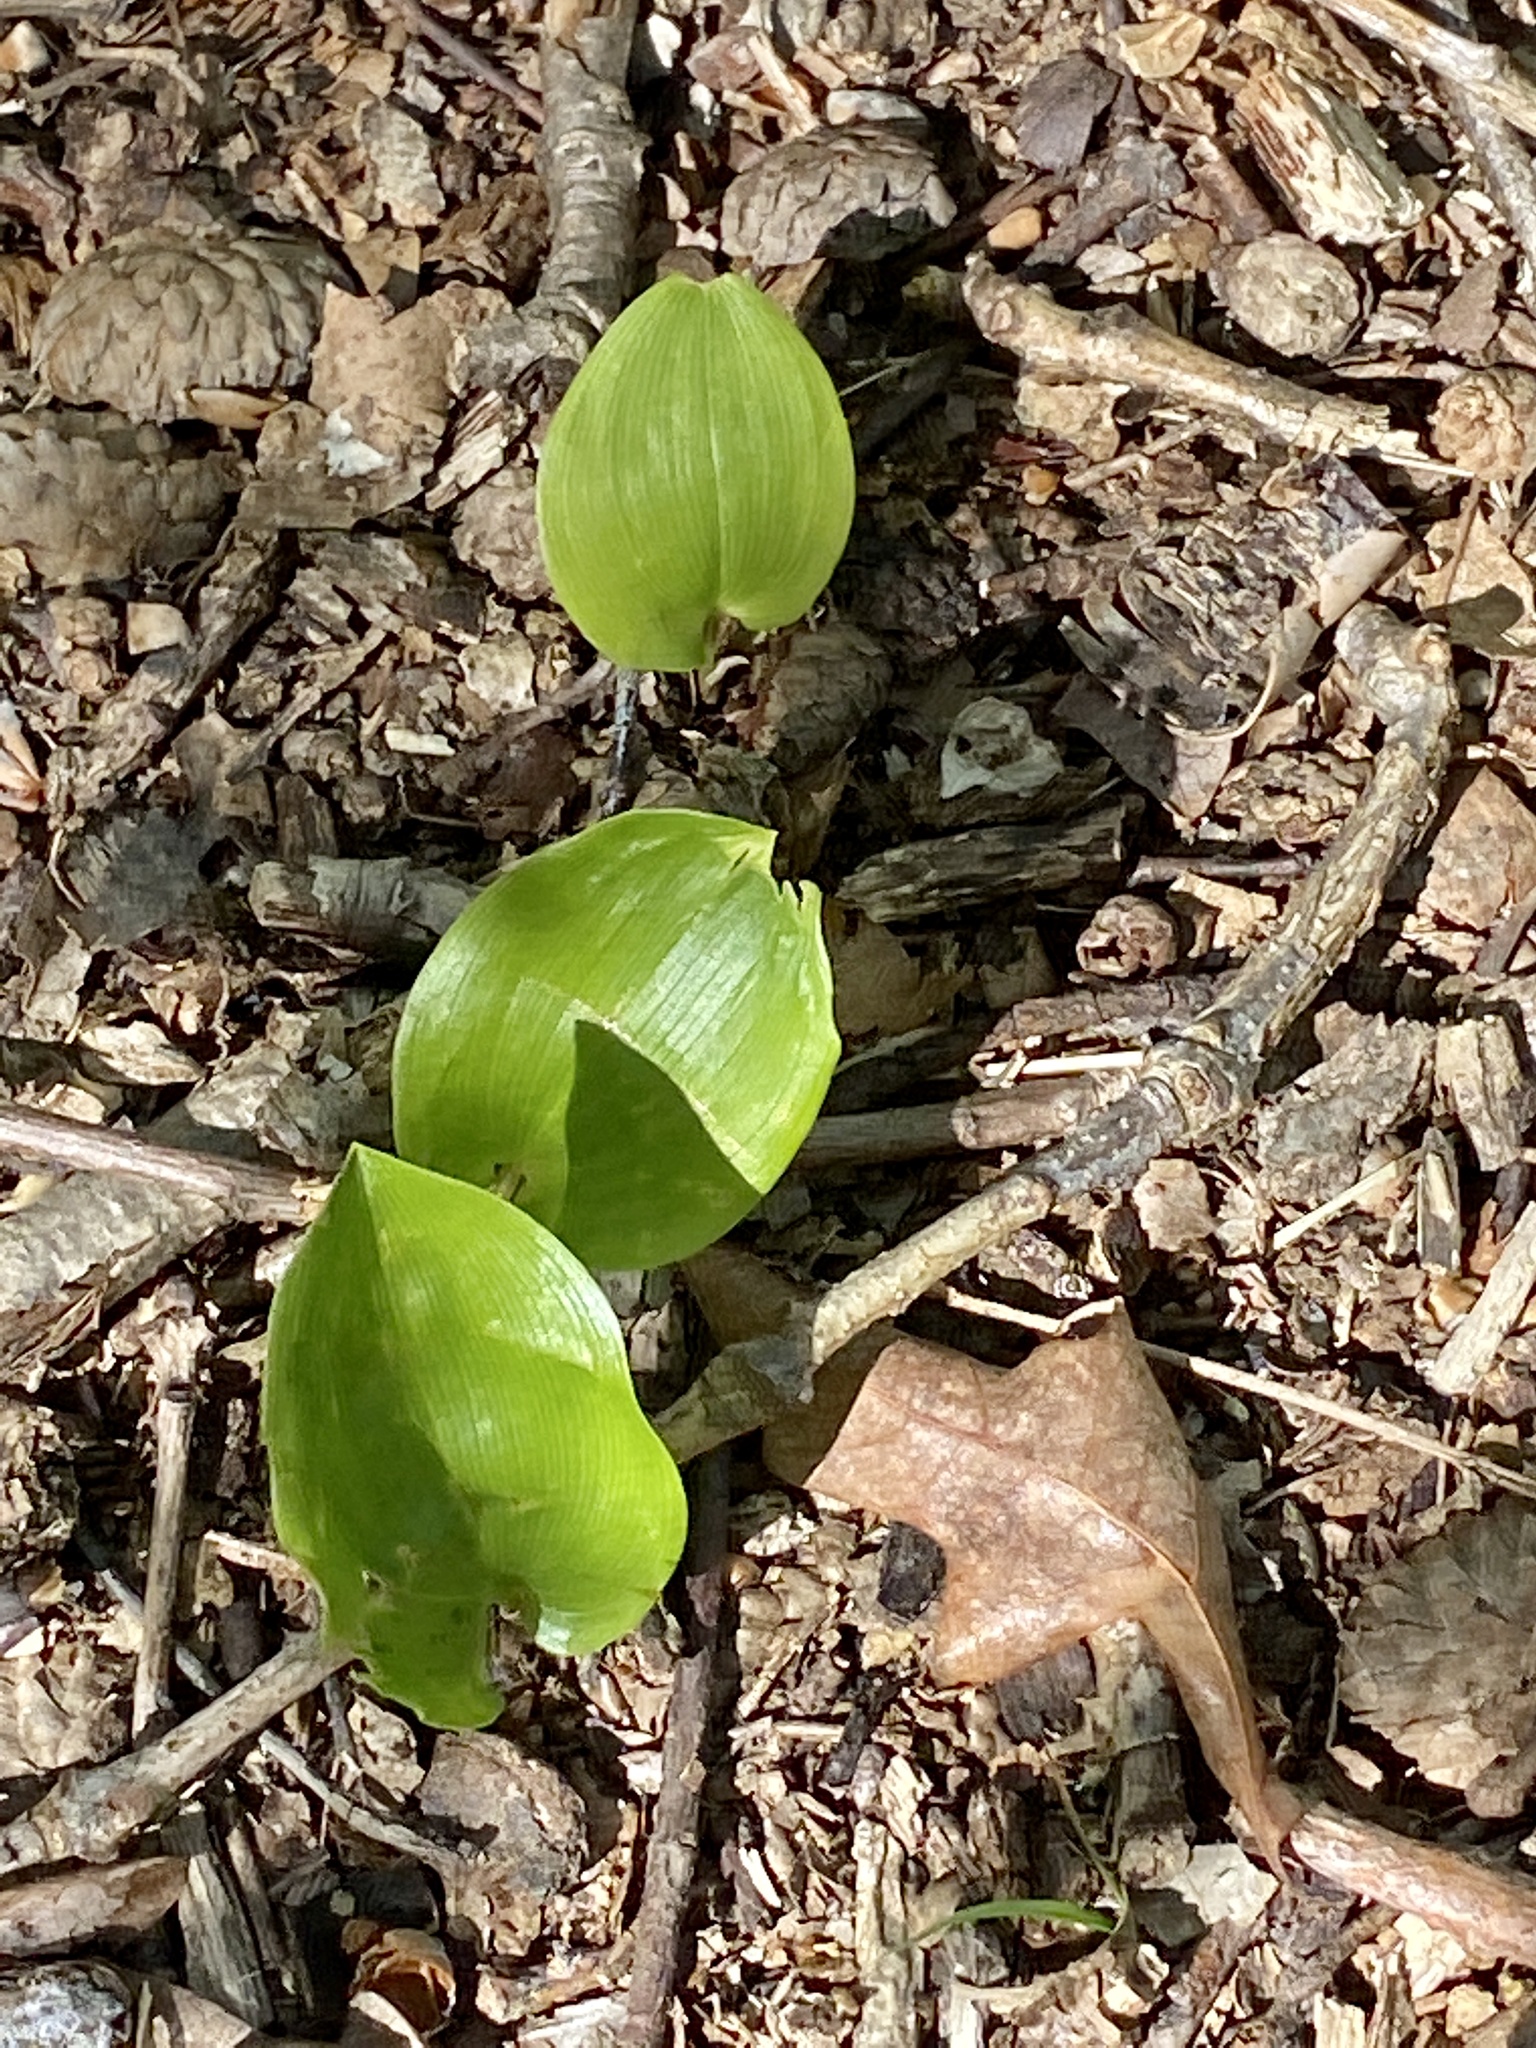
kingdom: Plantae
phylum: Tracheophyta
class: Liliopsida
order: Asparagales
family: Asparagaceae
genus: Maianthemum
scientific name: Maianthemum canadense
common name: False lily-of-the-valley
